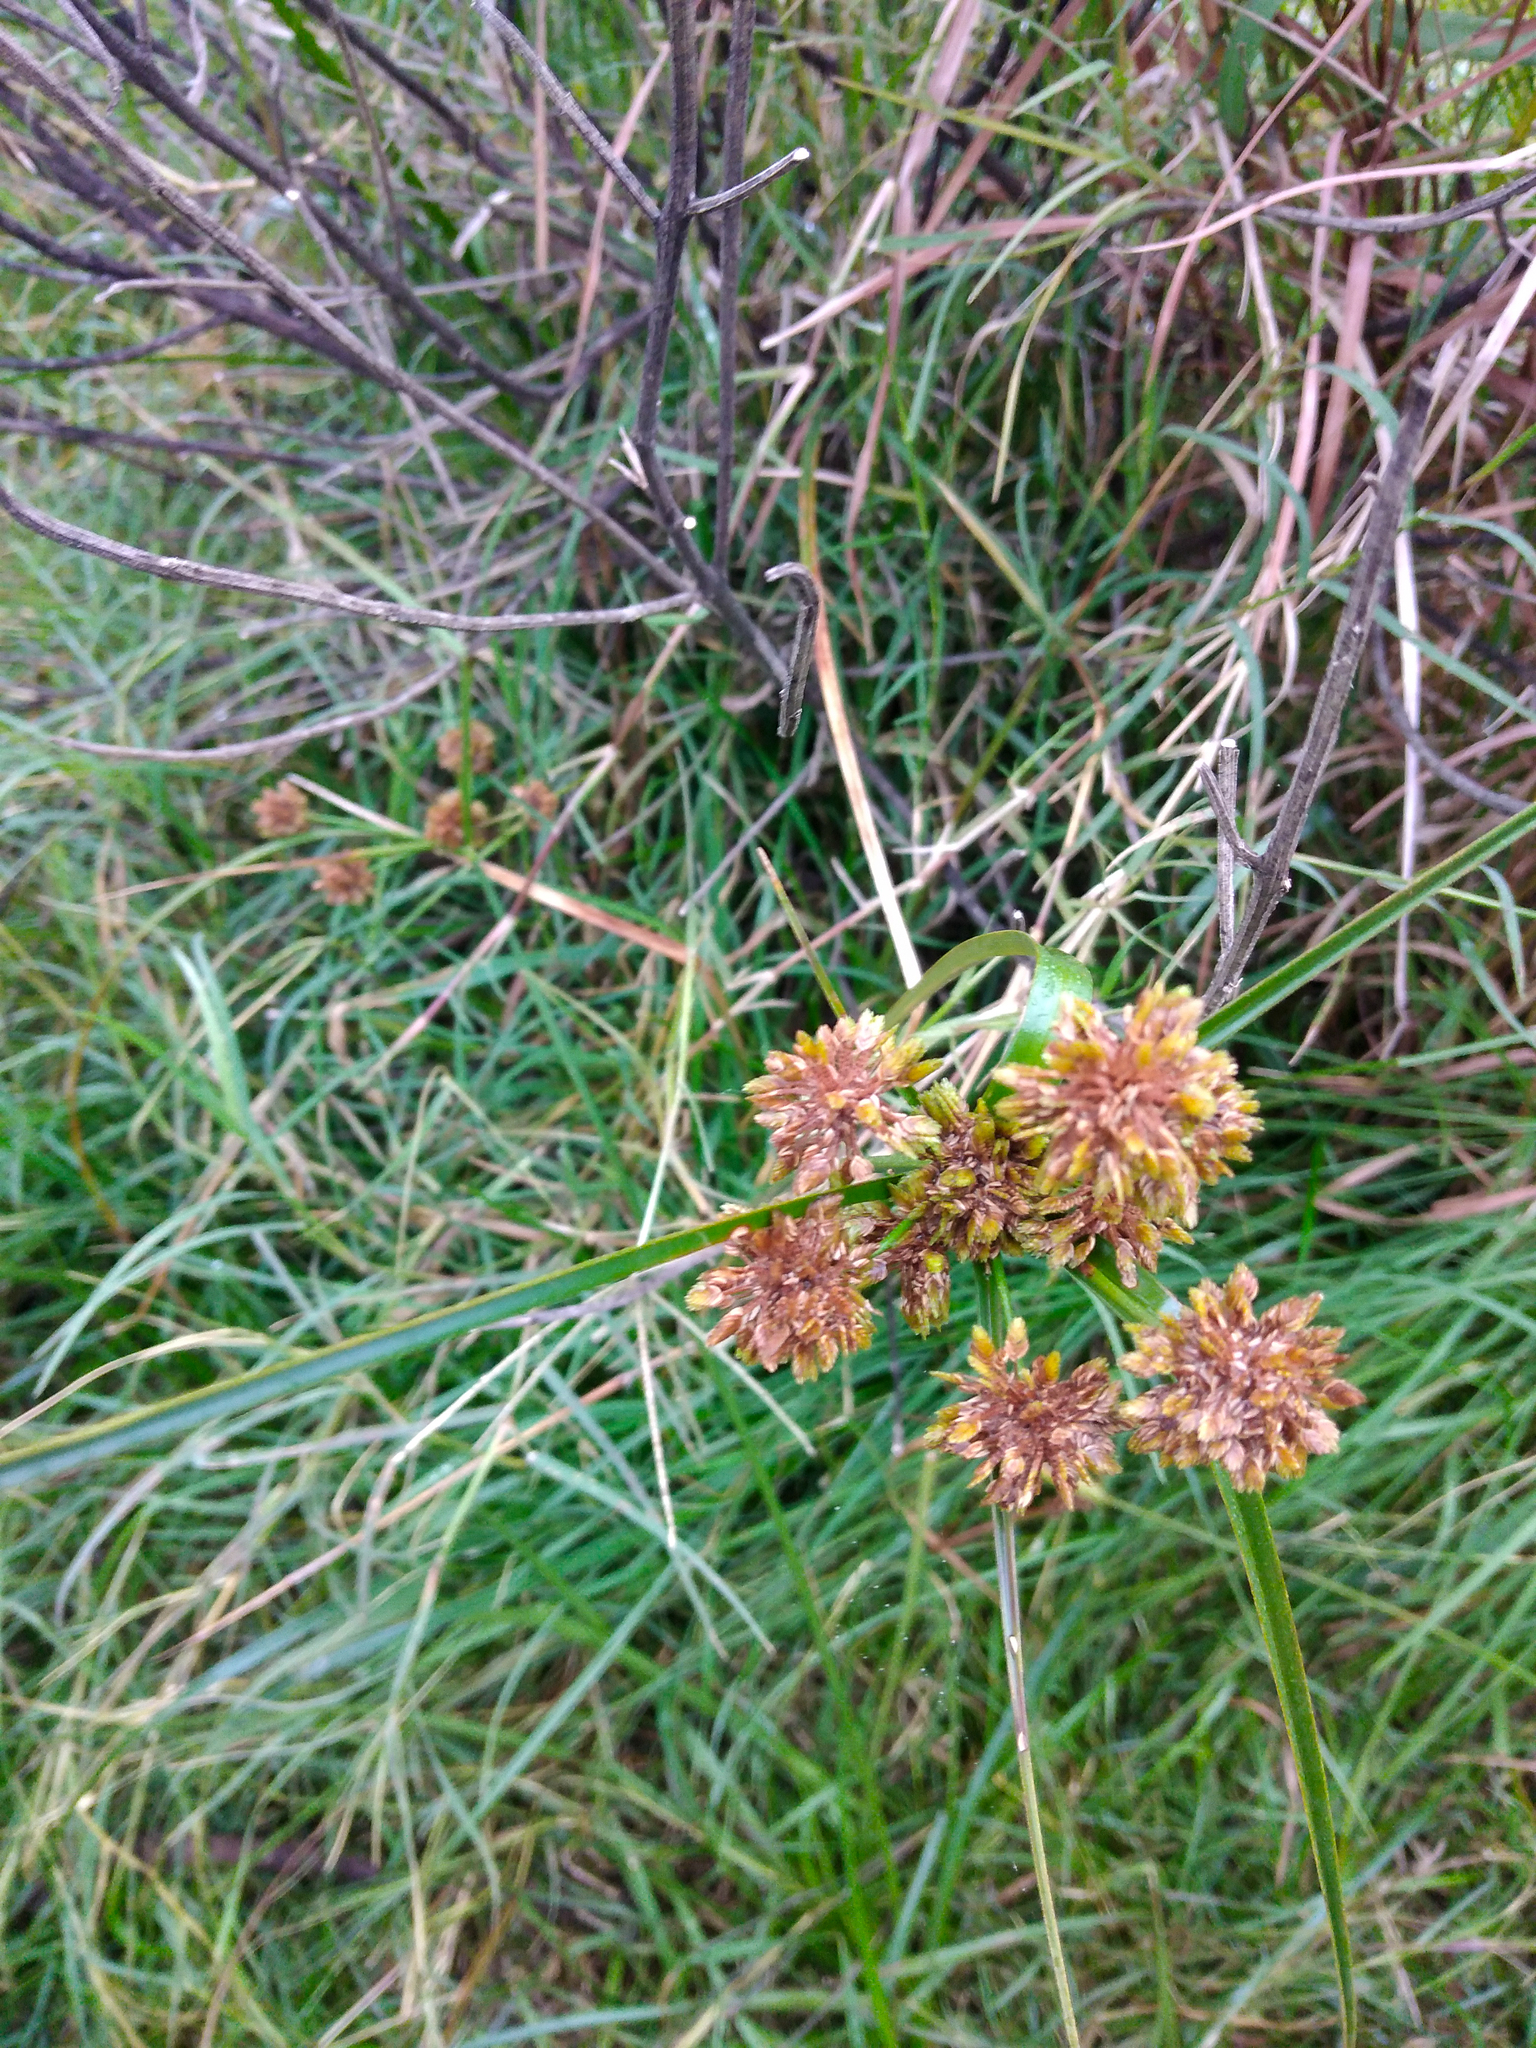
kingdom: Plantae
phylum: Tracheophyta
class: Liliopsida
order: Poales
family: Cyperaceae
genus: Cyperus
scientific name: Cyperus eragrostis
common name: Tall flatsedge
